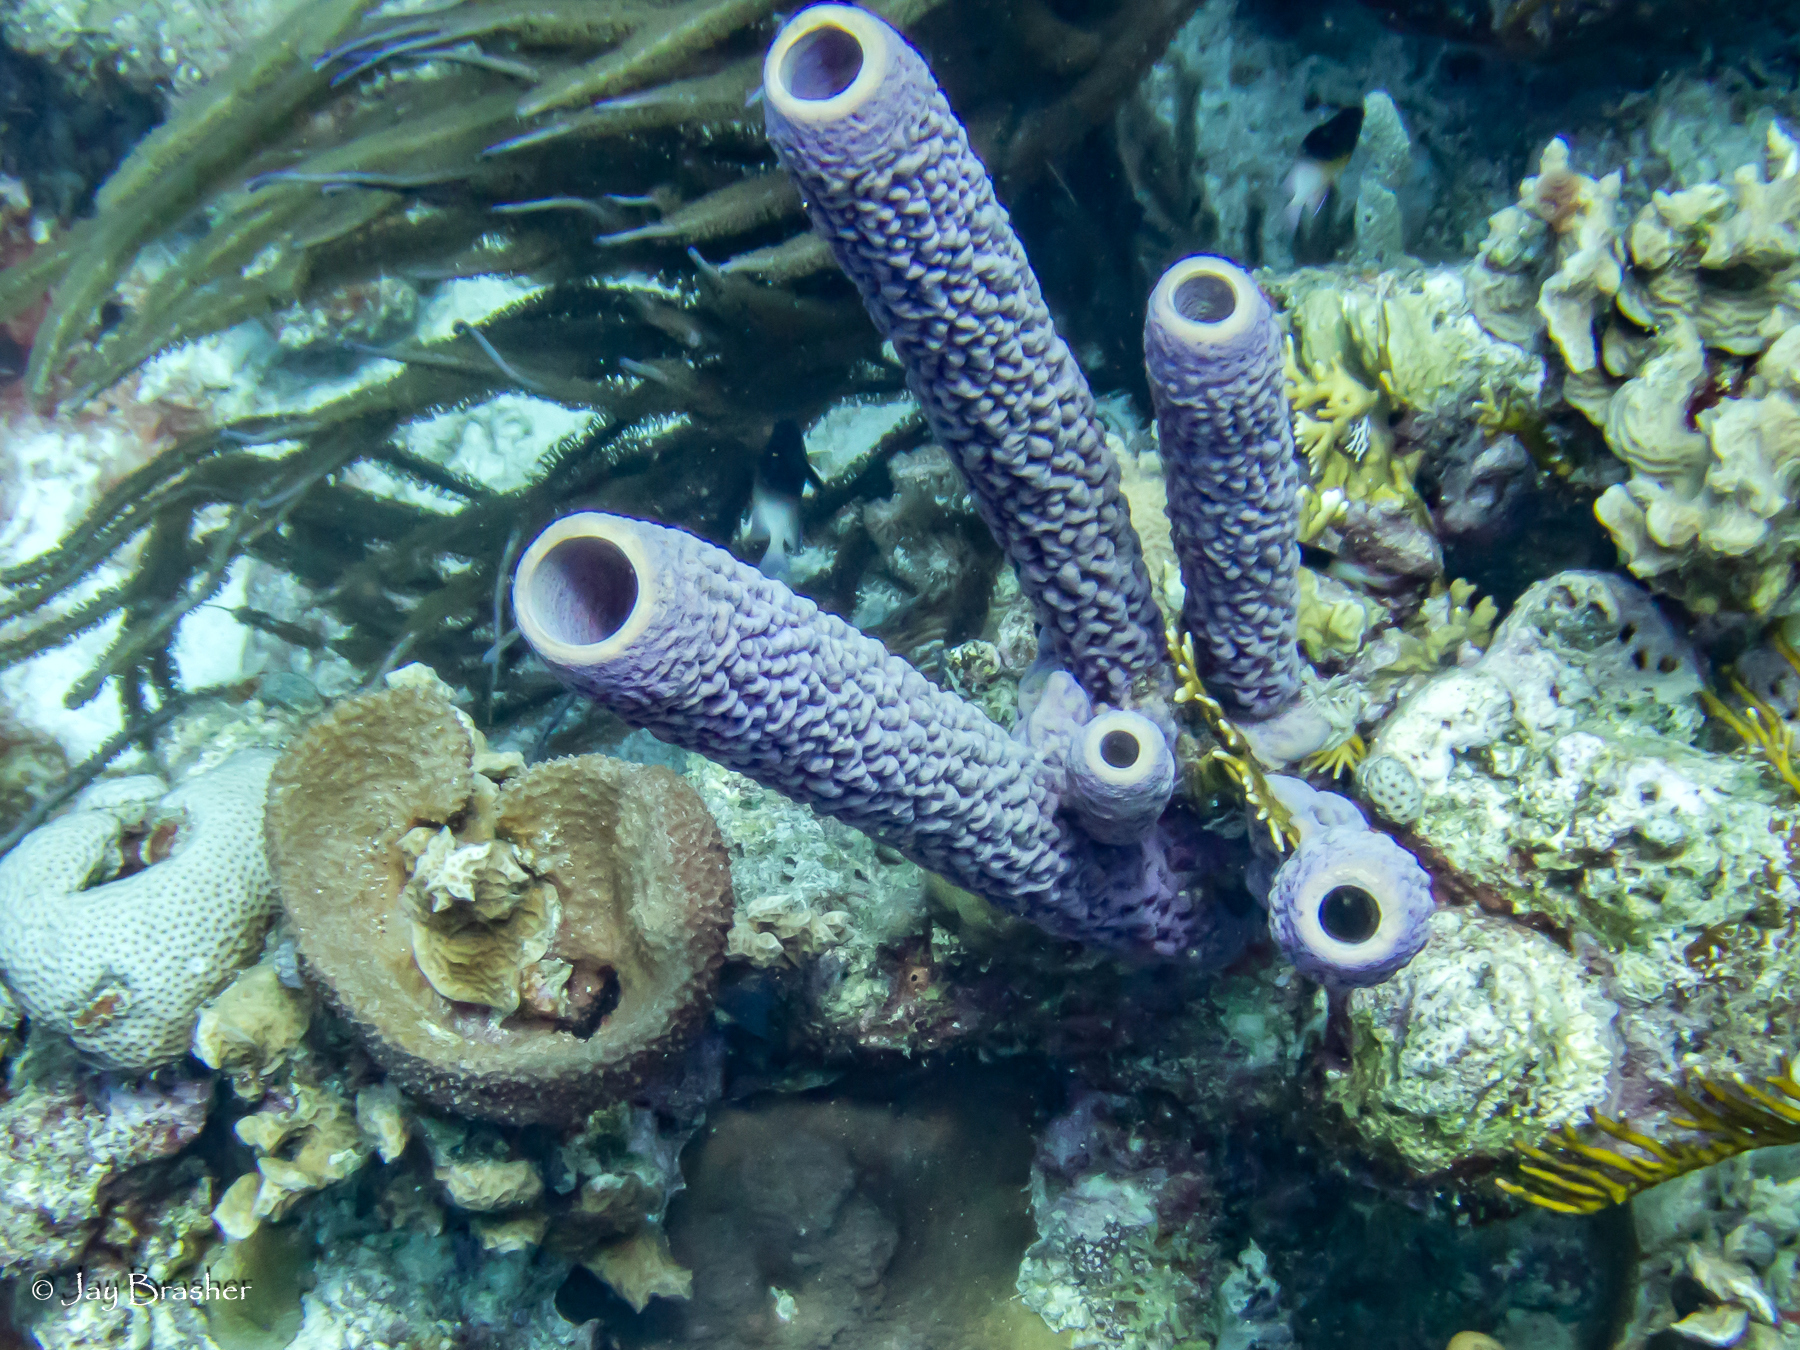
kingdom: Animalia
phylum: Porifera
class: Demospongiae
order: Verongiida
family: Aplysinidae
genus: Aplysina
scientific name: Aplysina archeri
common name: Stove-pipe sponge
